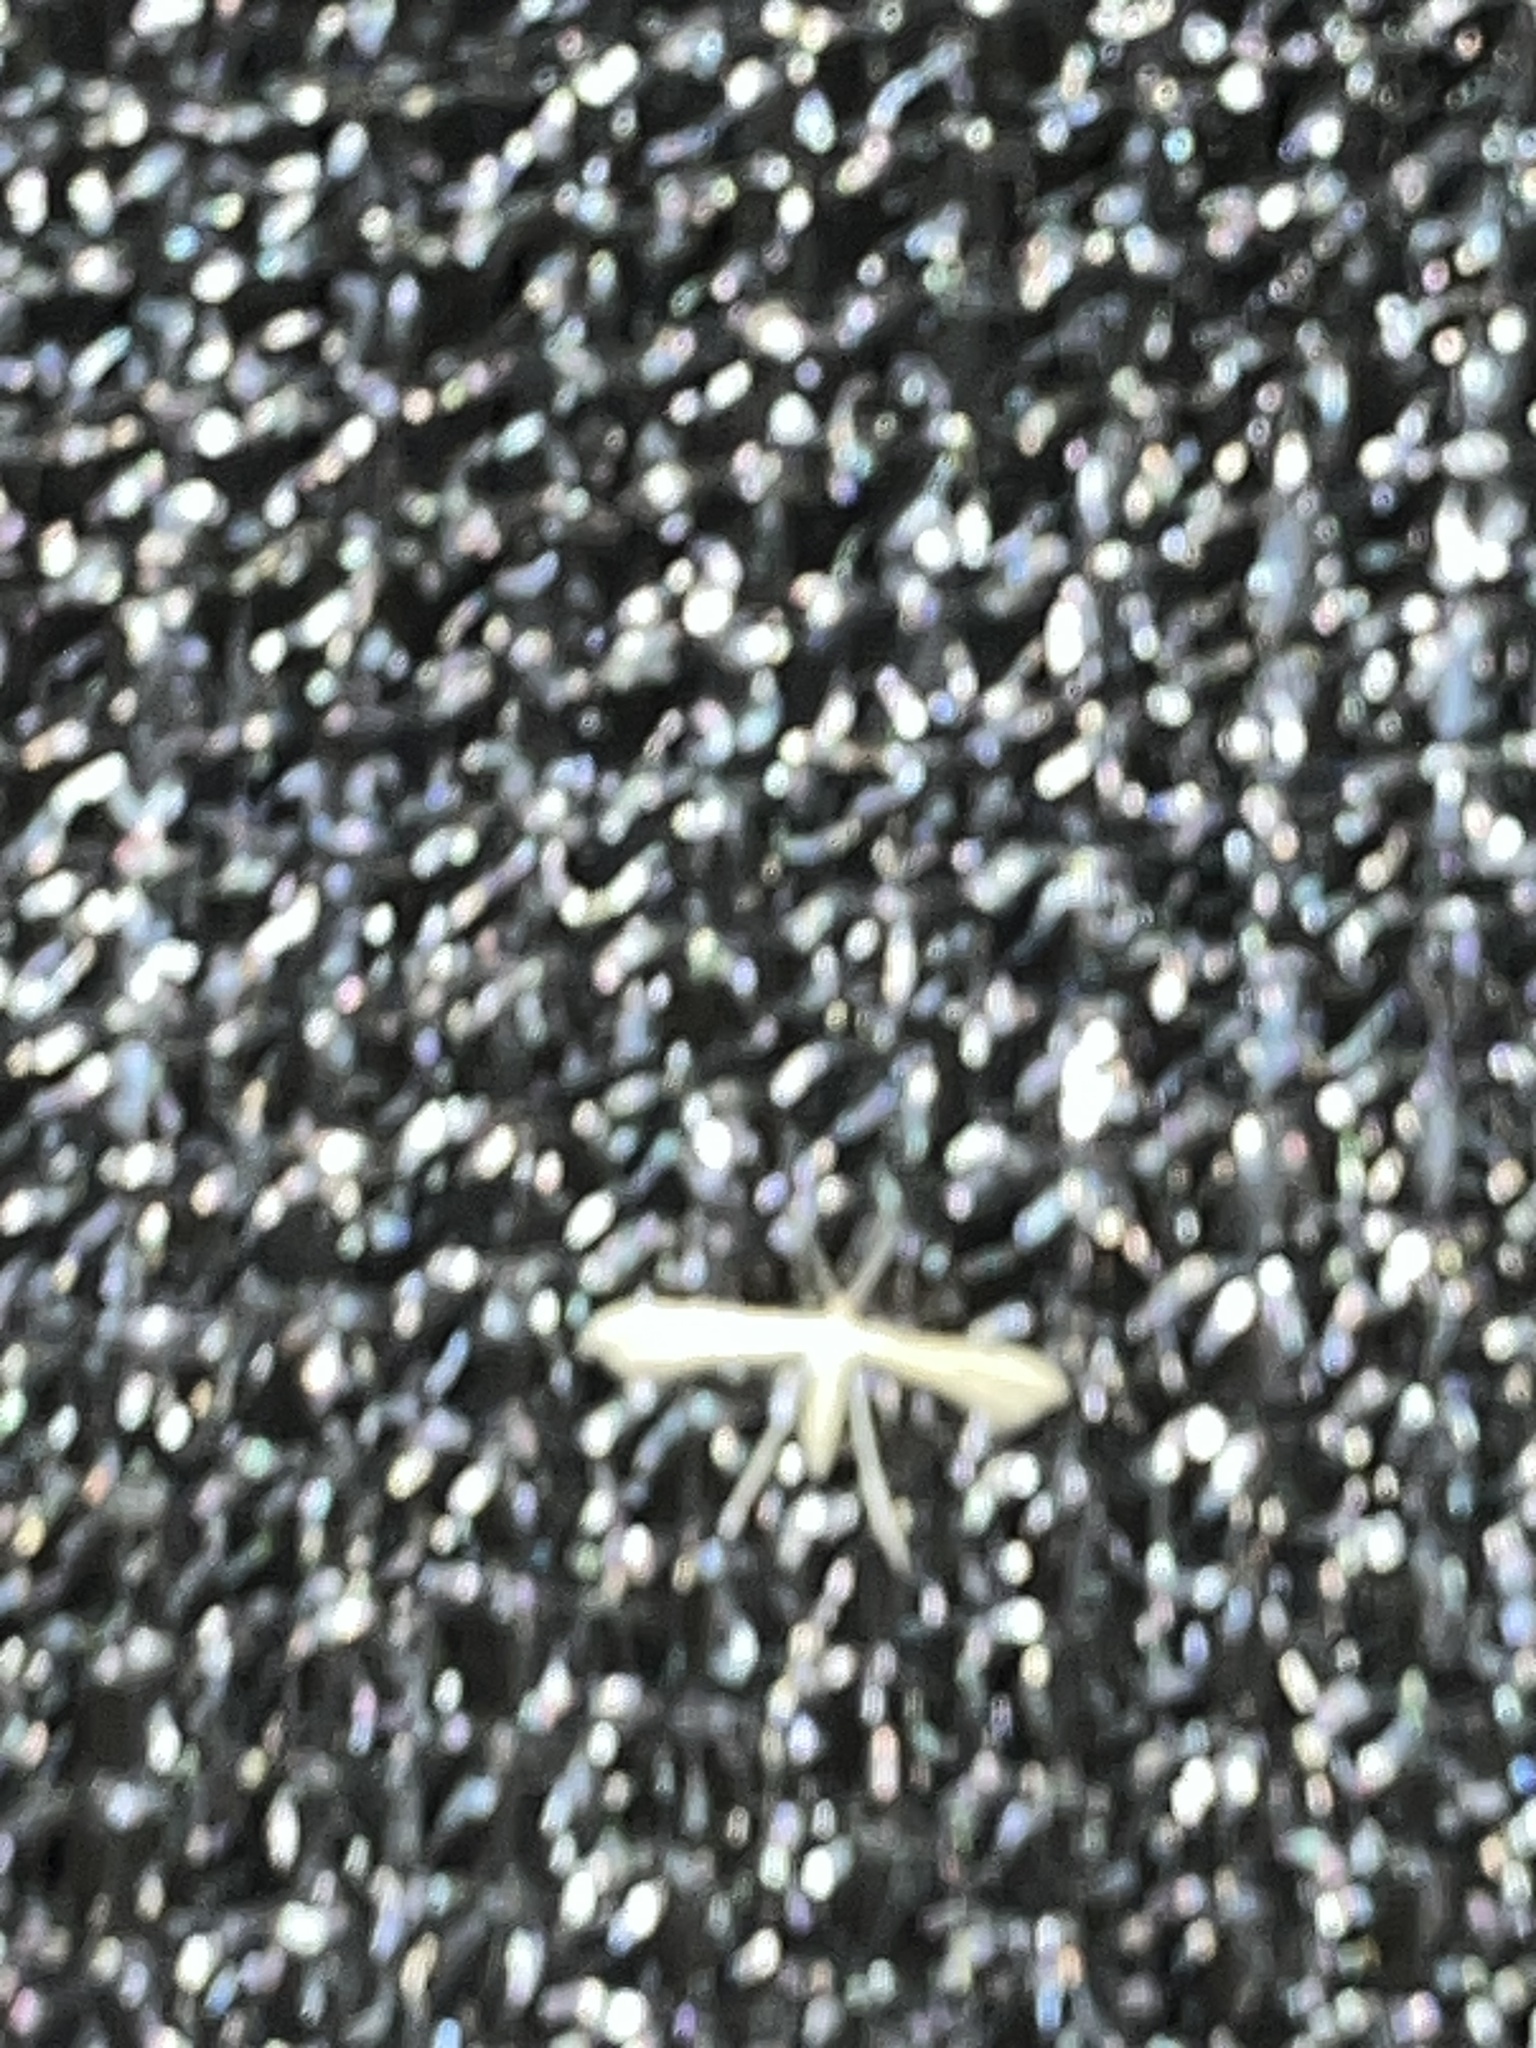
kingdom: Animalia
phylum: Arthropoda
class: Insecta
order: Lepidoptera
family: Pterophoridae
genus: Adaina
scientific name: Adaina
